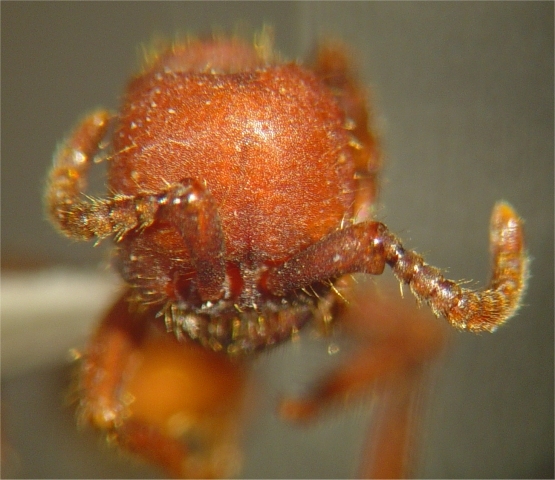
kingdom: Animalia
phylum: Arthropoda
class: Insecta
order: Hymenoptera
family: Formicidae
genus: Nomamyrmex
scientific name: Nomamyrmex hartigii
